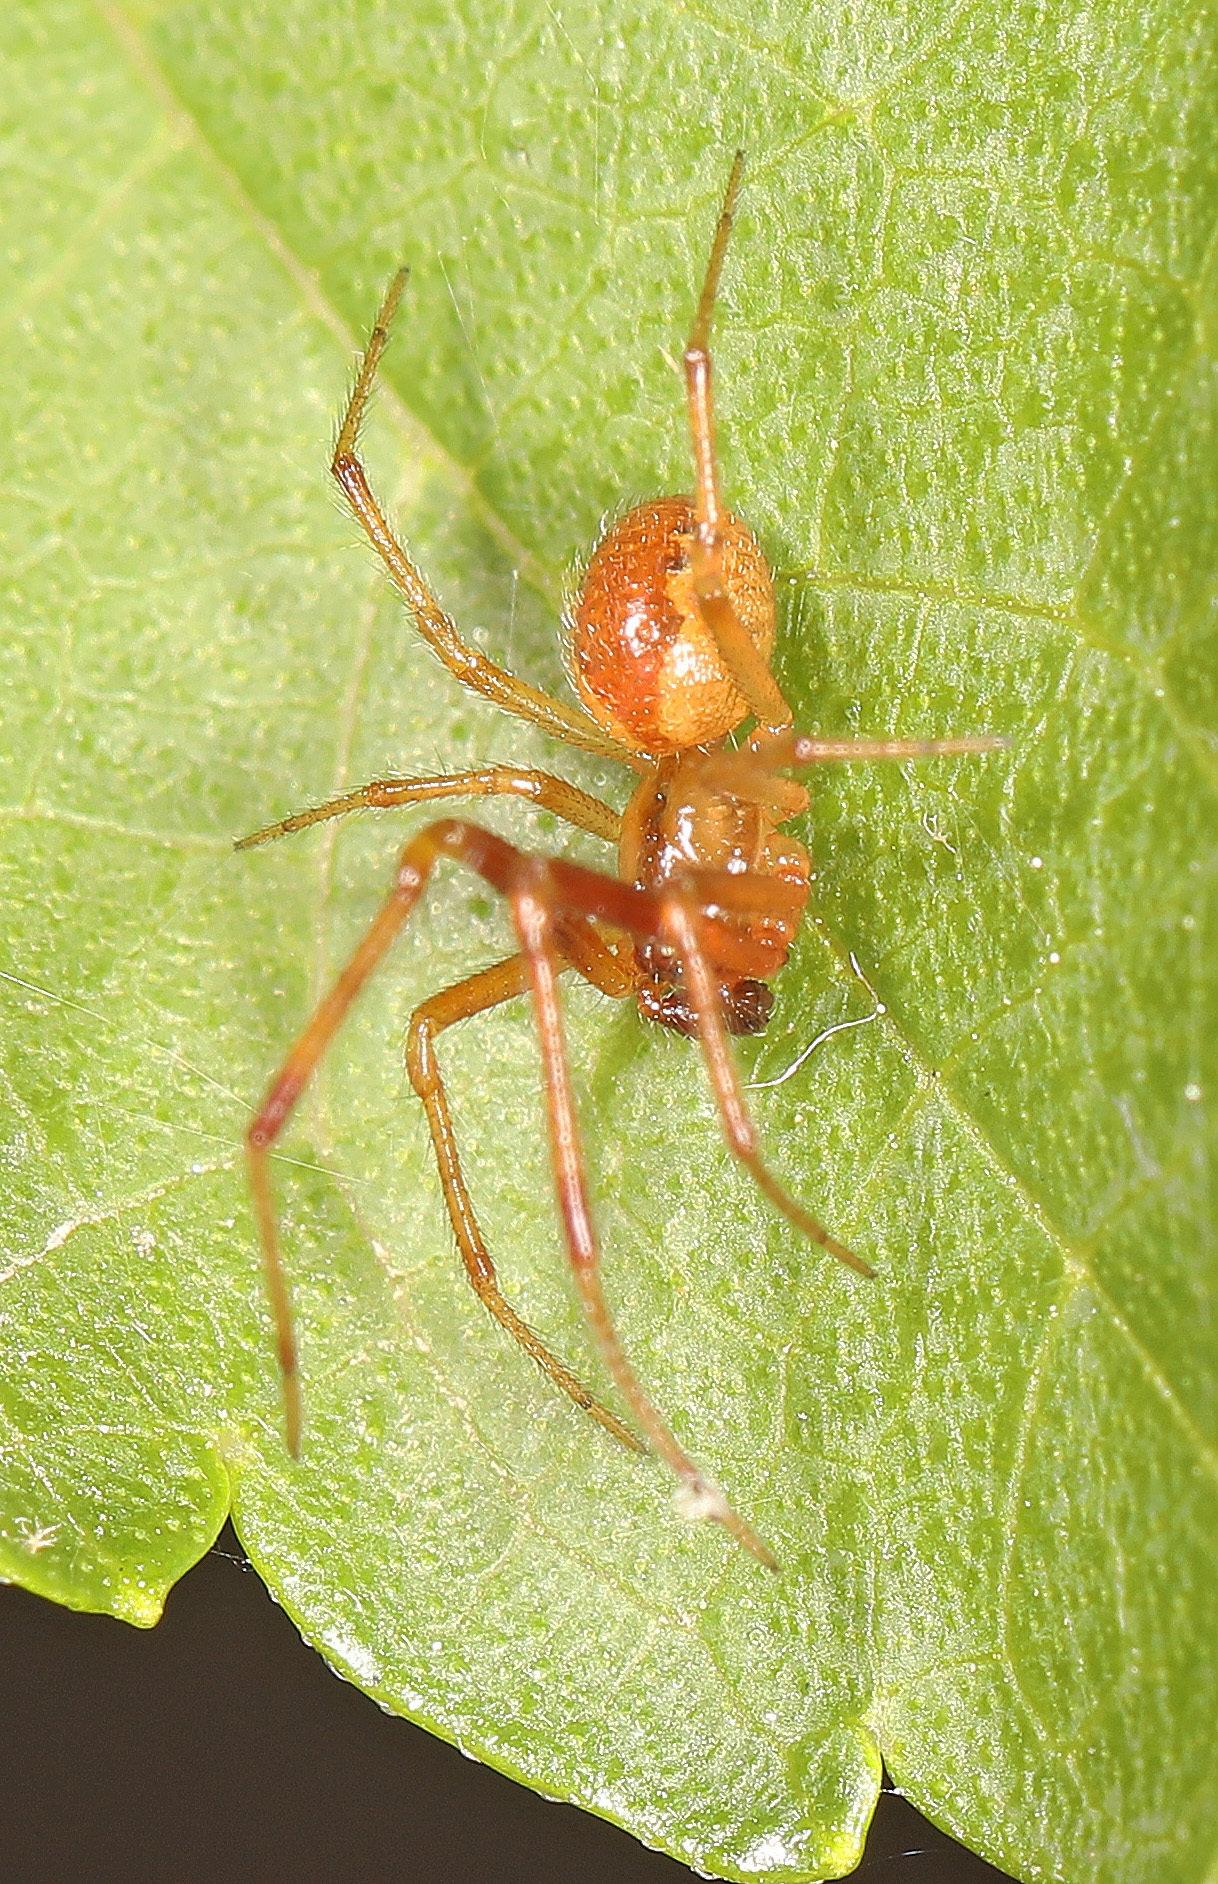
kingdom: Animalia
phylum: Arthropoda
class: Arachnida
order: Araneae
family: Theridiidae
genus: Anelosimus
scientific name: Anelosimus studiosus
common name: Cobweb spiders
